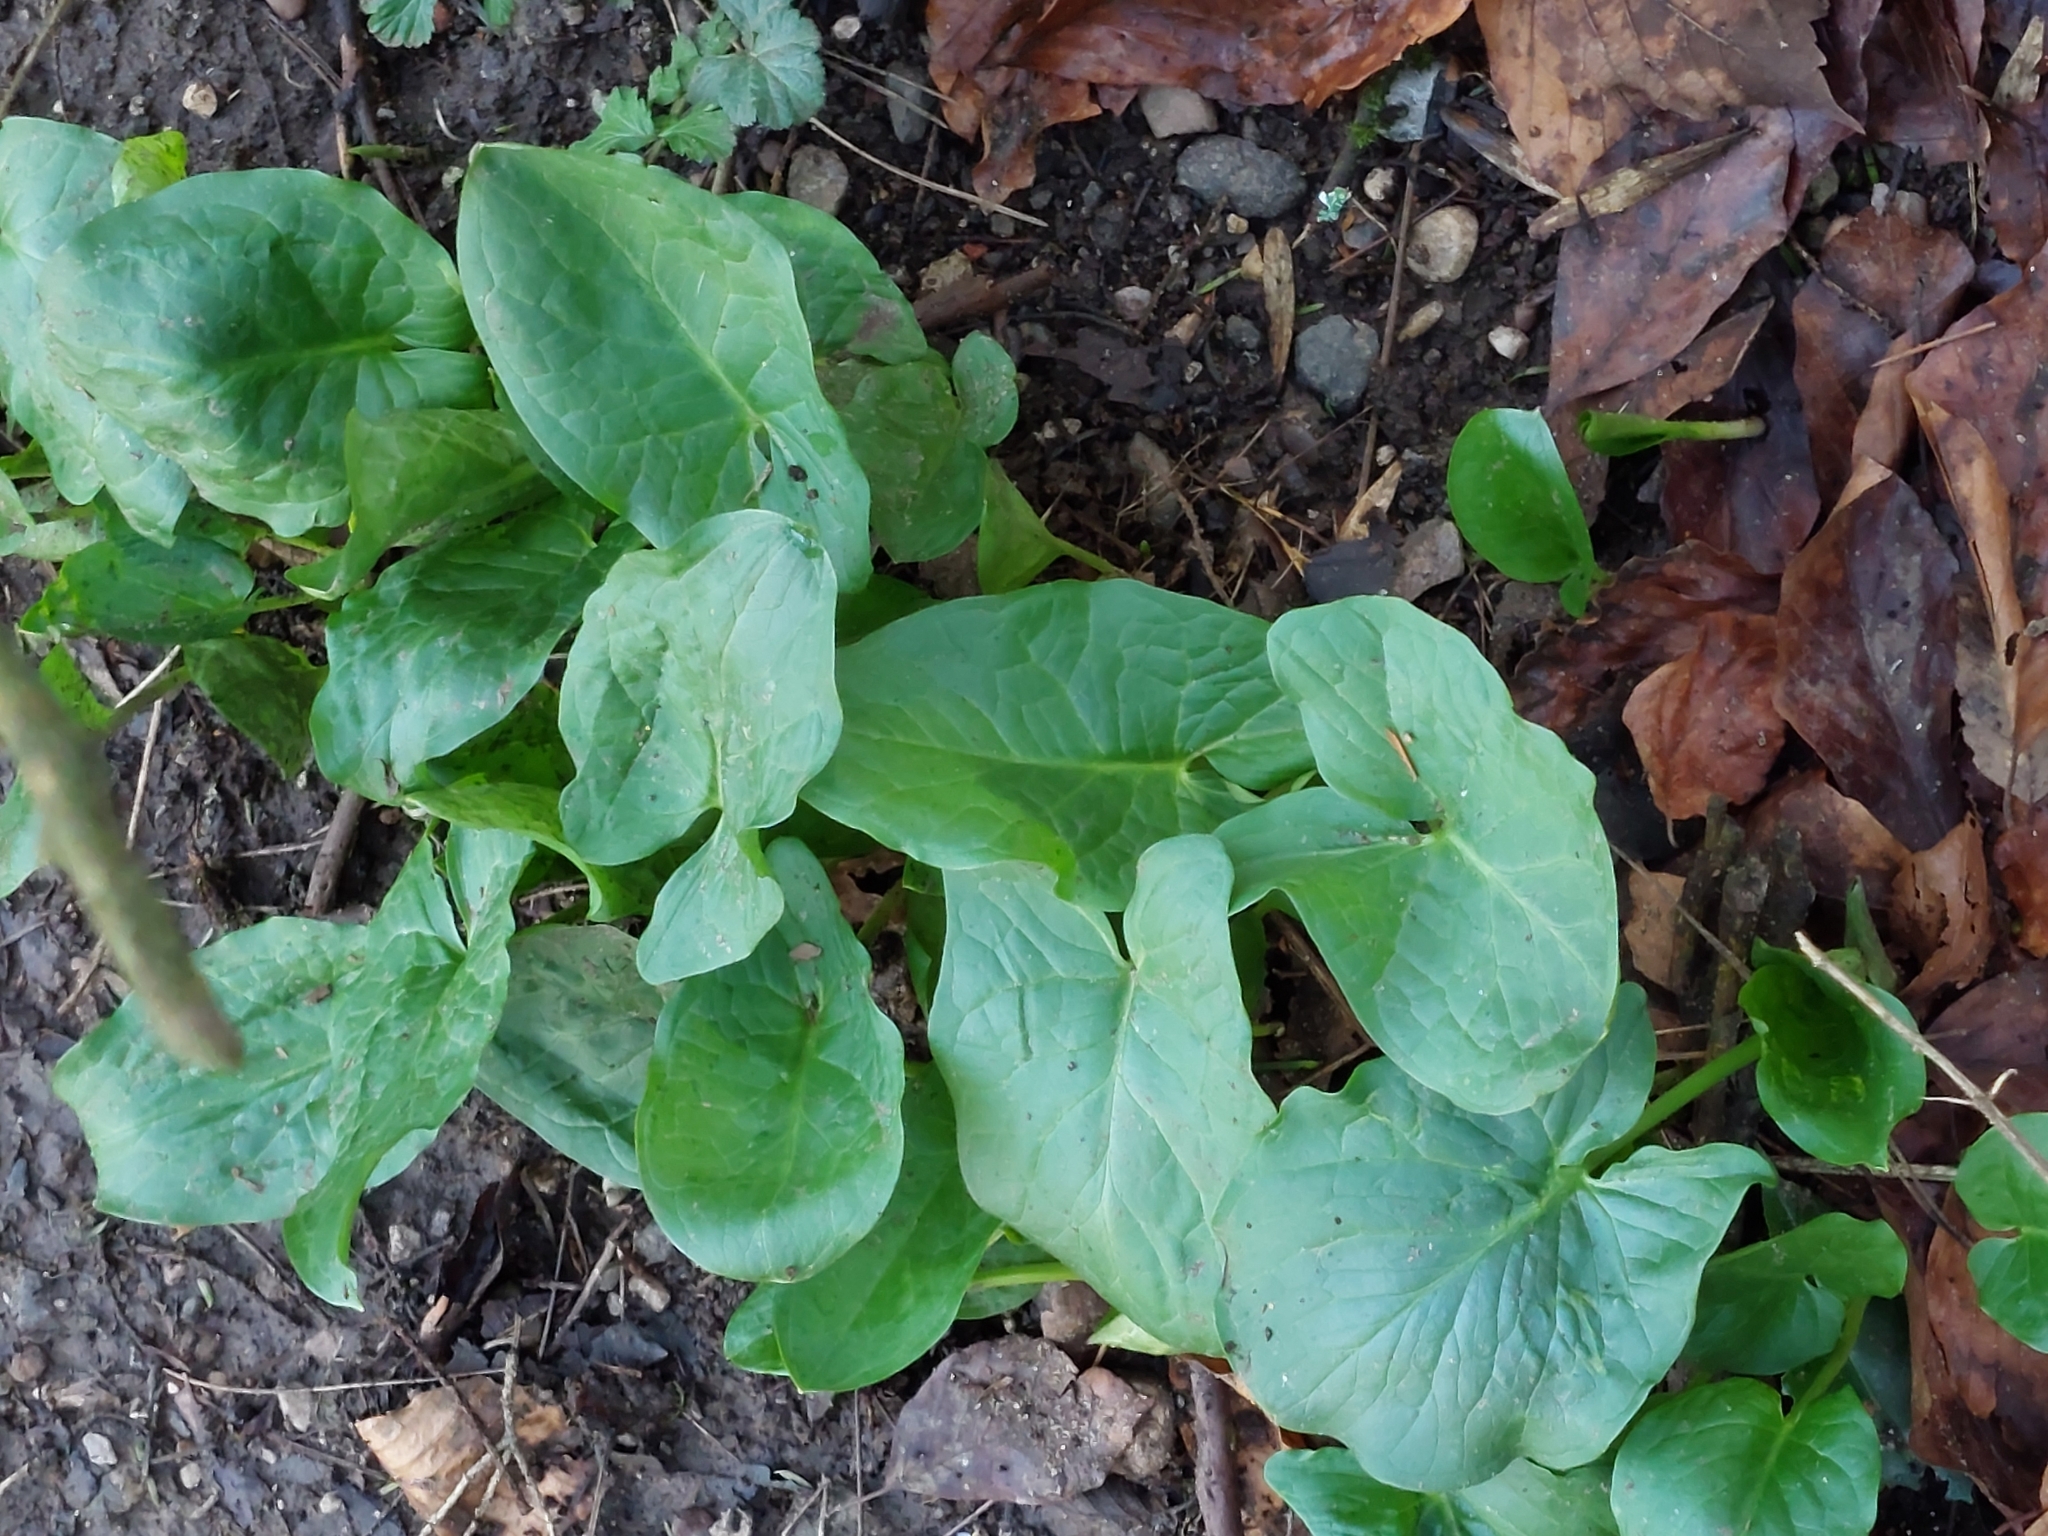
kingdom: Plantae
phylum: Tracheophyta
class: Liliopsida
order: Alismatales
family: Araceae
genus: Arum
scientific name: Arum maculatum
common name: Lords-and-ladies
